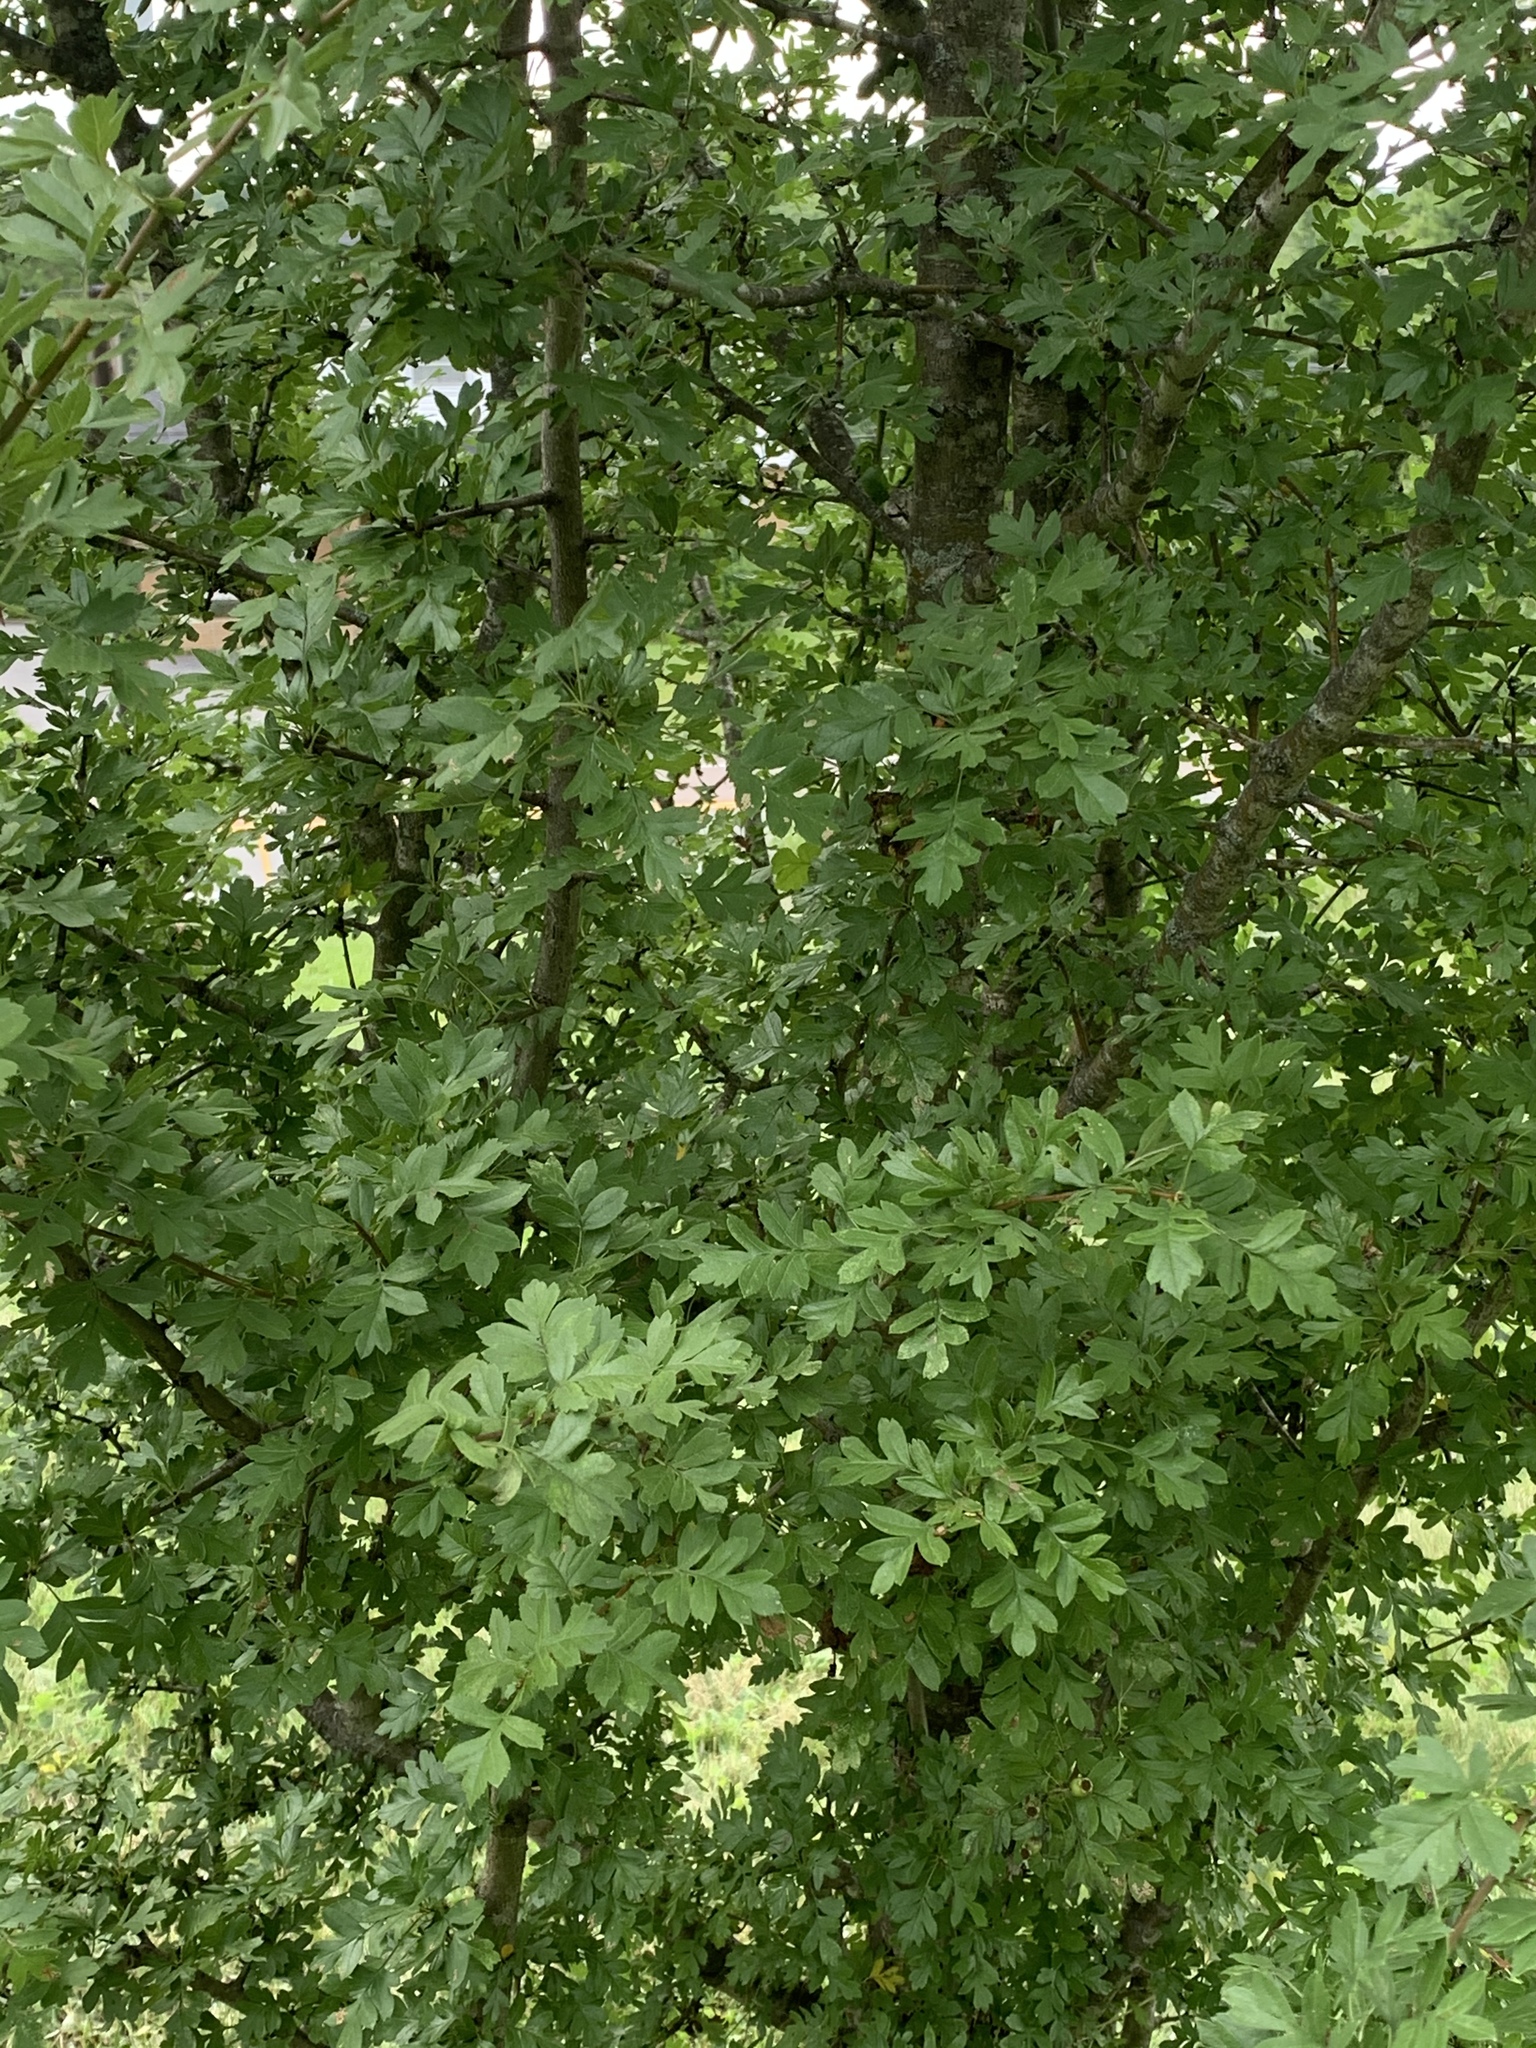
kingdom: Plantae
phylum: Tracheophyta
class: Magnoliopsida
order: Rosales
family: Rosaceae
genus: Crataegus
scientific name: Crataegus monogyna
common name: Hawthorn
